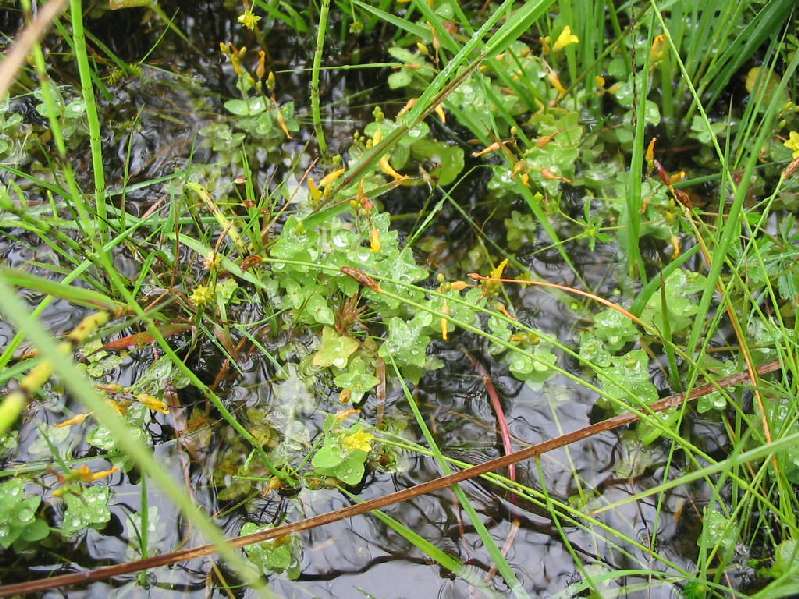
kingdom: Plantae
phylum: Tracheophyta
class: Magnoliopsida
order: Malpighiales
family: Hypericaceae
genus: Hypericum
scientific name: Hypericum elodes
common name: Marsh st. john's-wort
